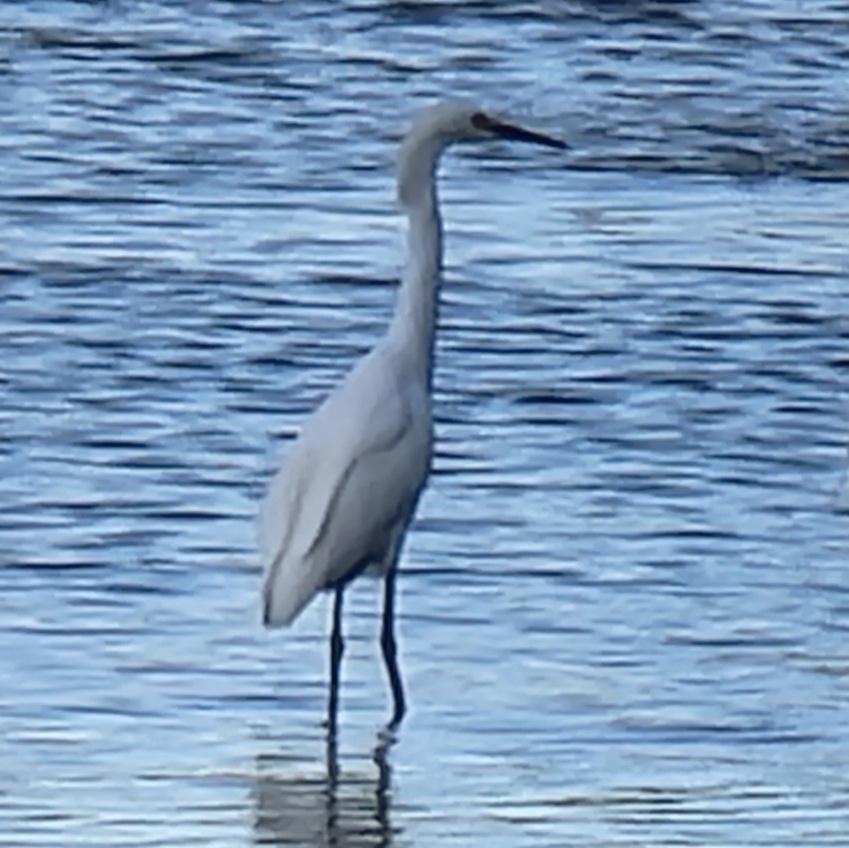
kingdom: Animalia
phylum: Chordata
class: Aves
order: Pelecaniformes
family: Ardeidae
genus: Egretta
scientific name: Egretta thula
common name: Snowy egret
